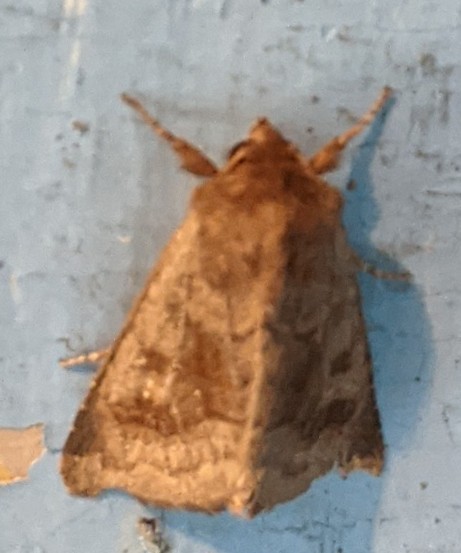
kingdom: Animalia
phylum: Arthropoda
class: Insecta
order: Lepidoptera
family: Noctuidae
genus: Nephelodes
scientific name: Nephelodes minians
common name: Bronzed cutworm
